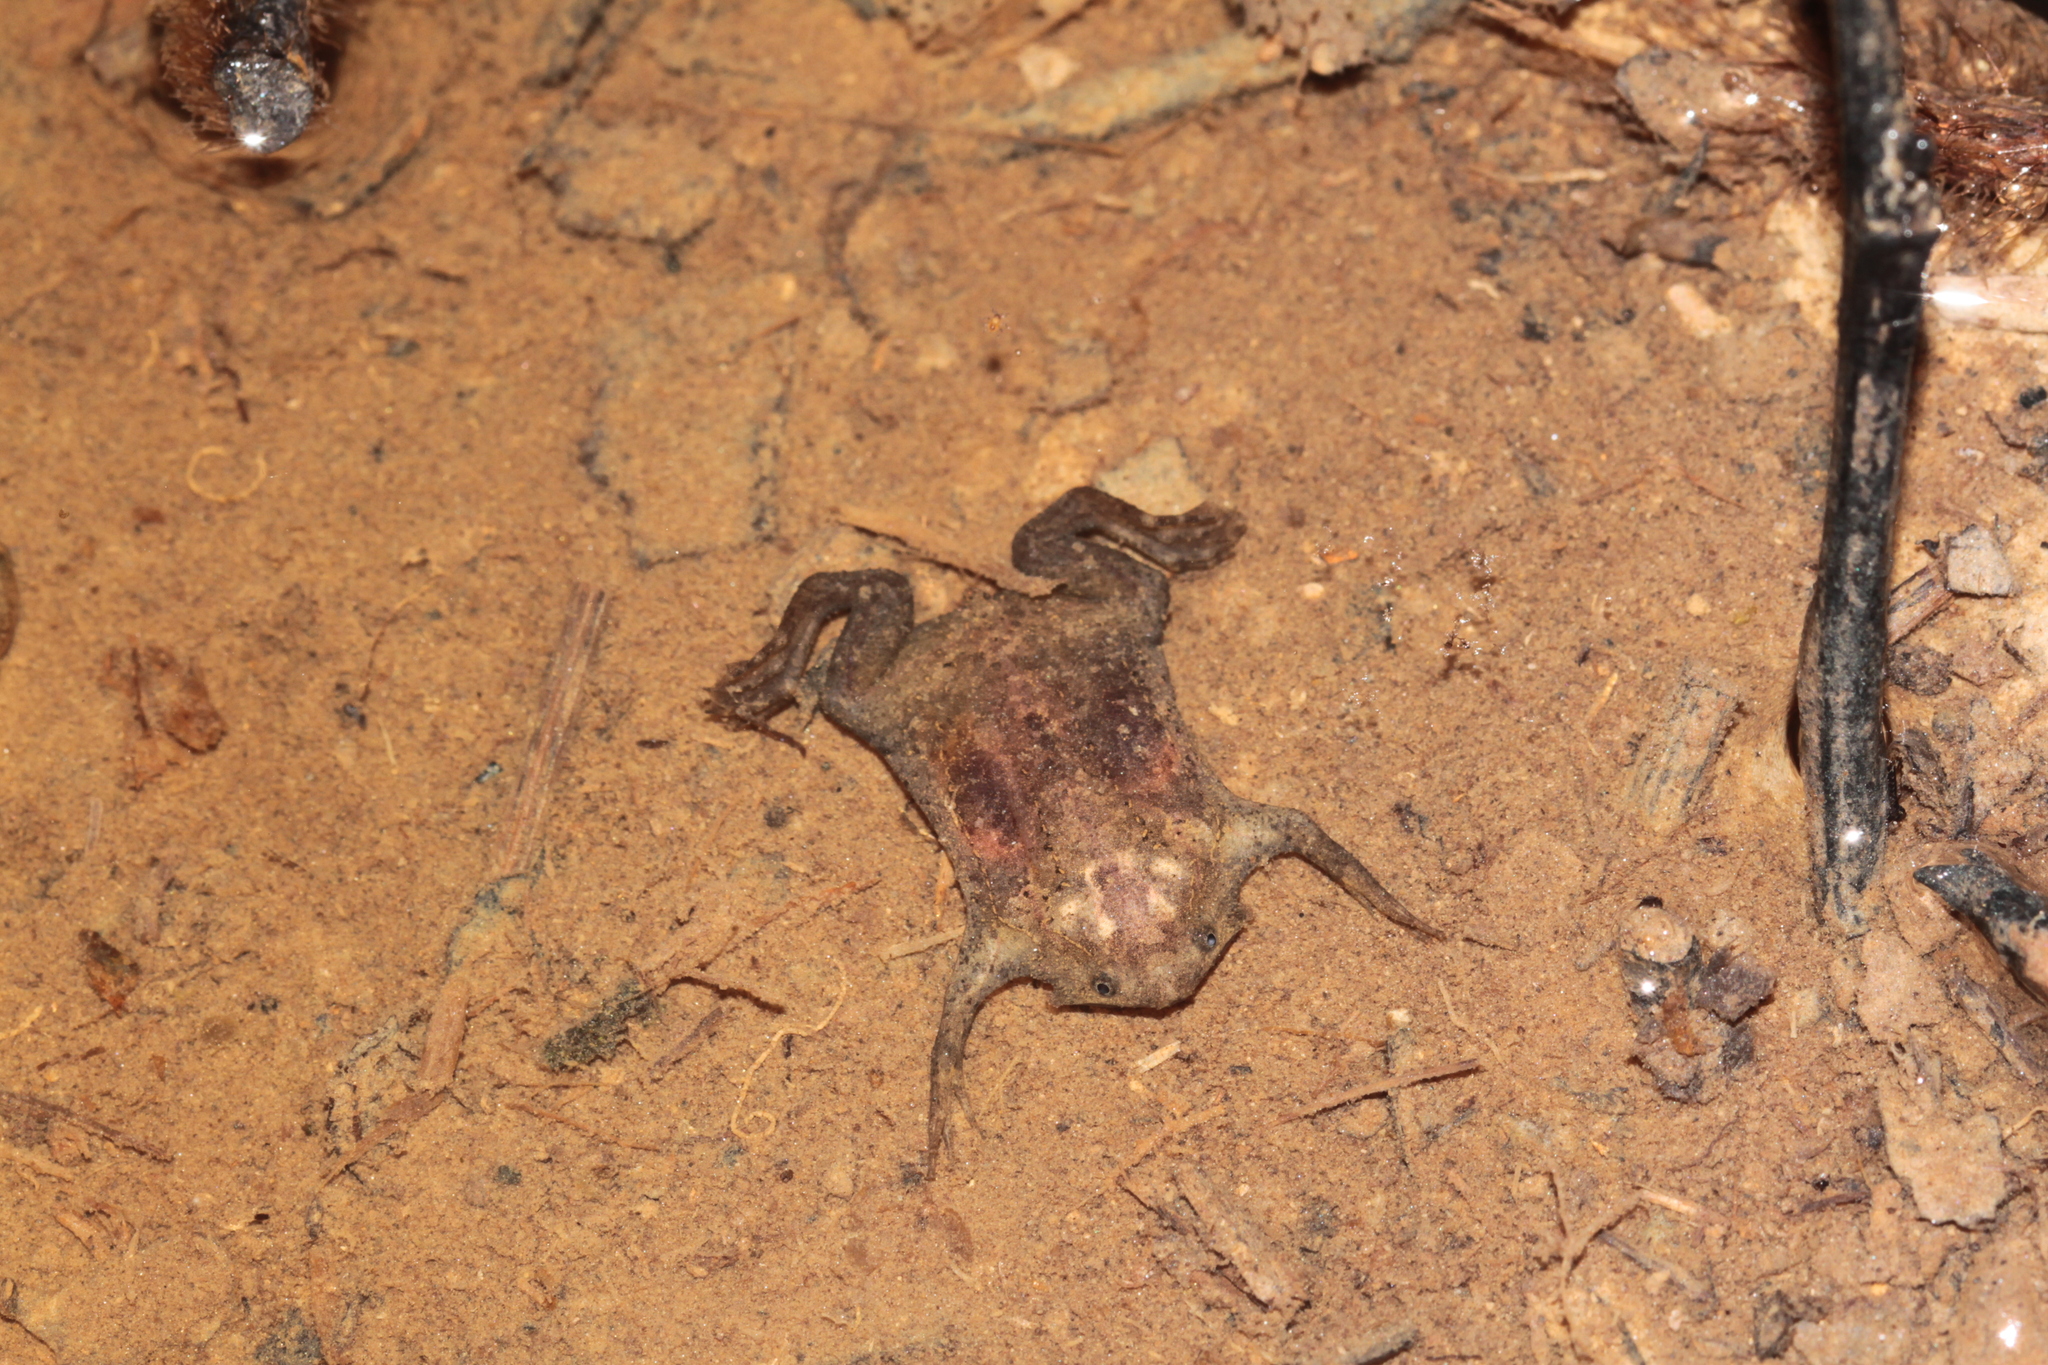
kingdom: Animalia
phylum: Chordata
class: Amphibia
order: Anura
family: Pipidae
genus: Pipa
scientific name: Pipa pipa
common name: Surinam toad
